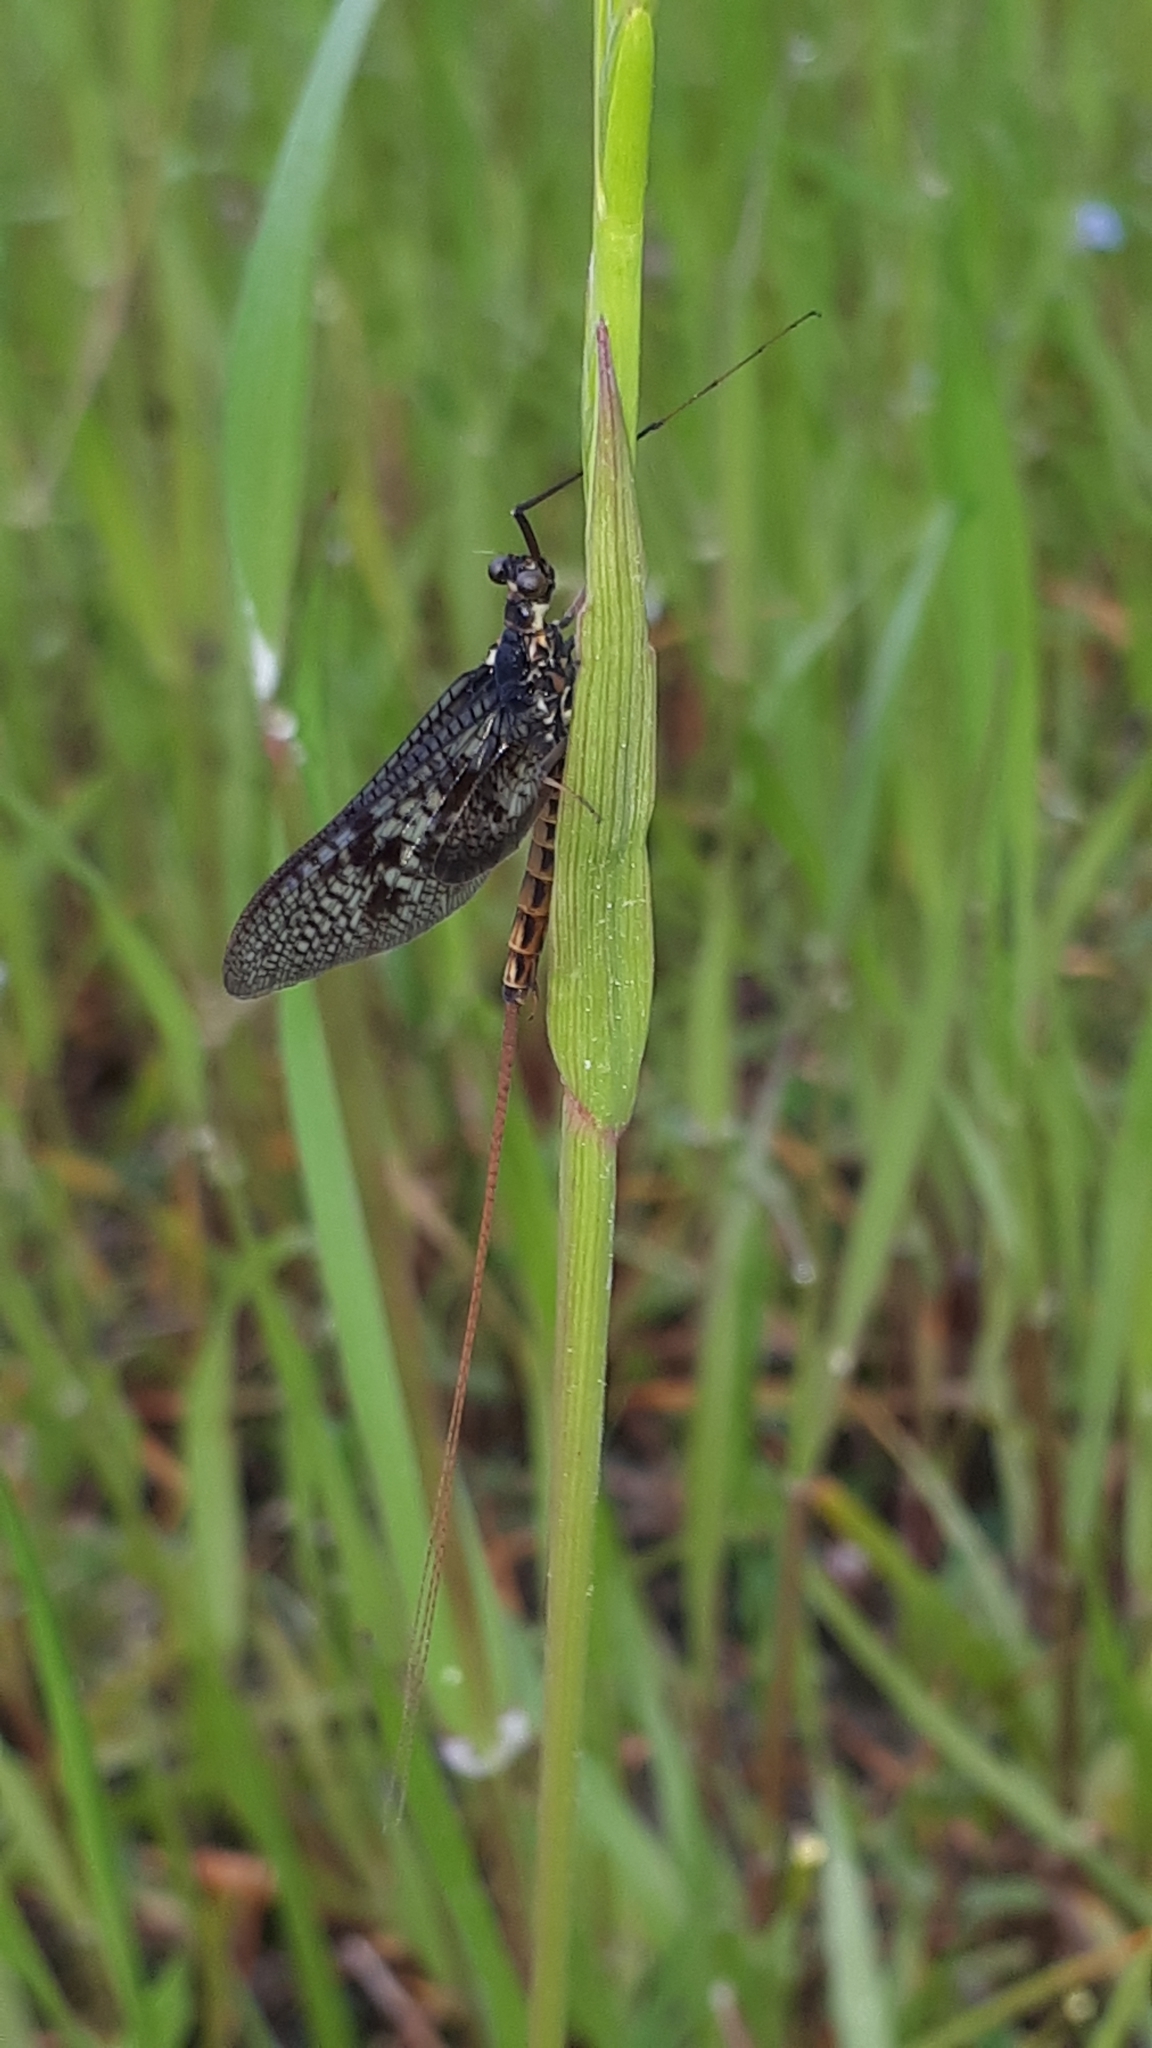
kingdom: Animalia
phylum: Arthropoda
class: Insecta
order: Ephemeroptera
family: Ephemeridae
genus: Ephemera
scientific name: Ephemera vulgata
